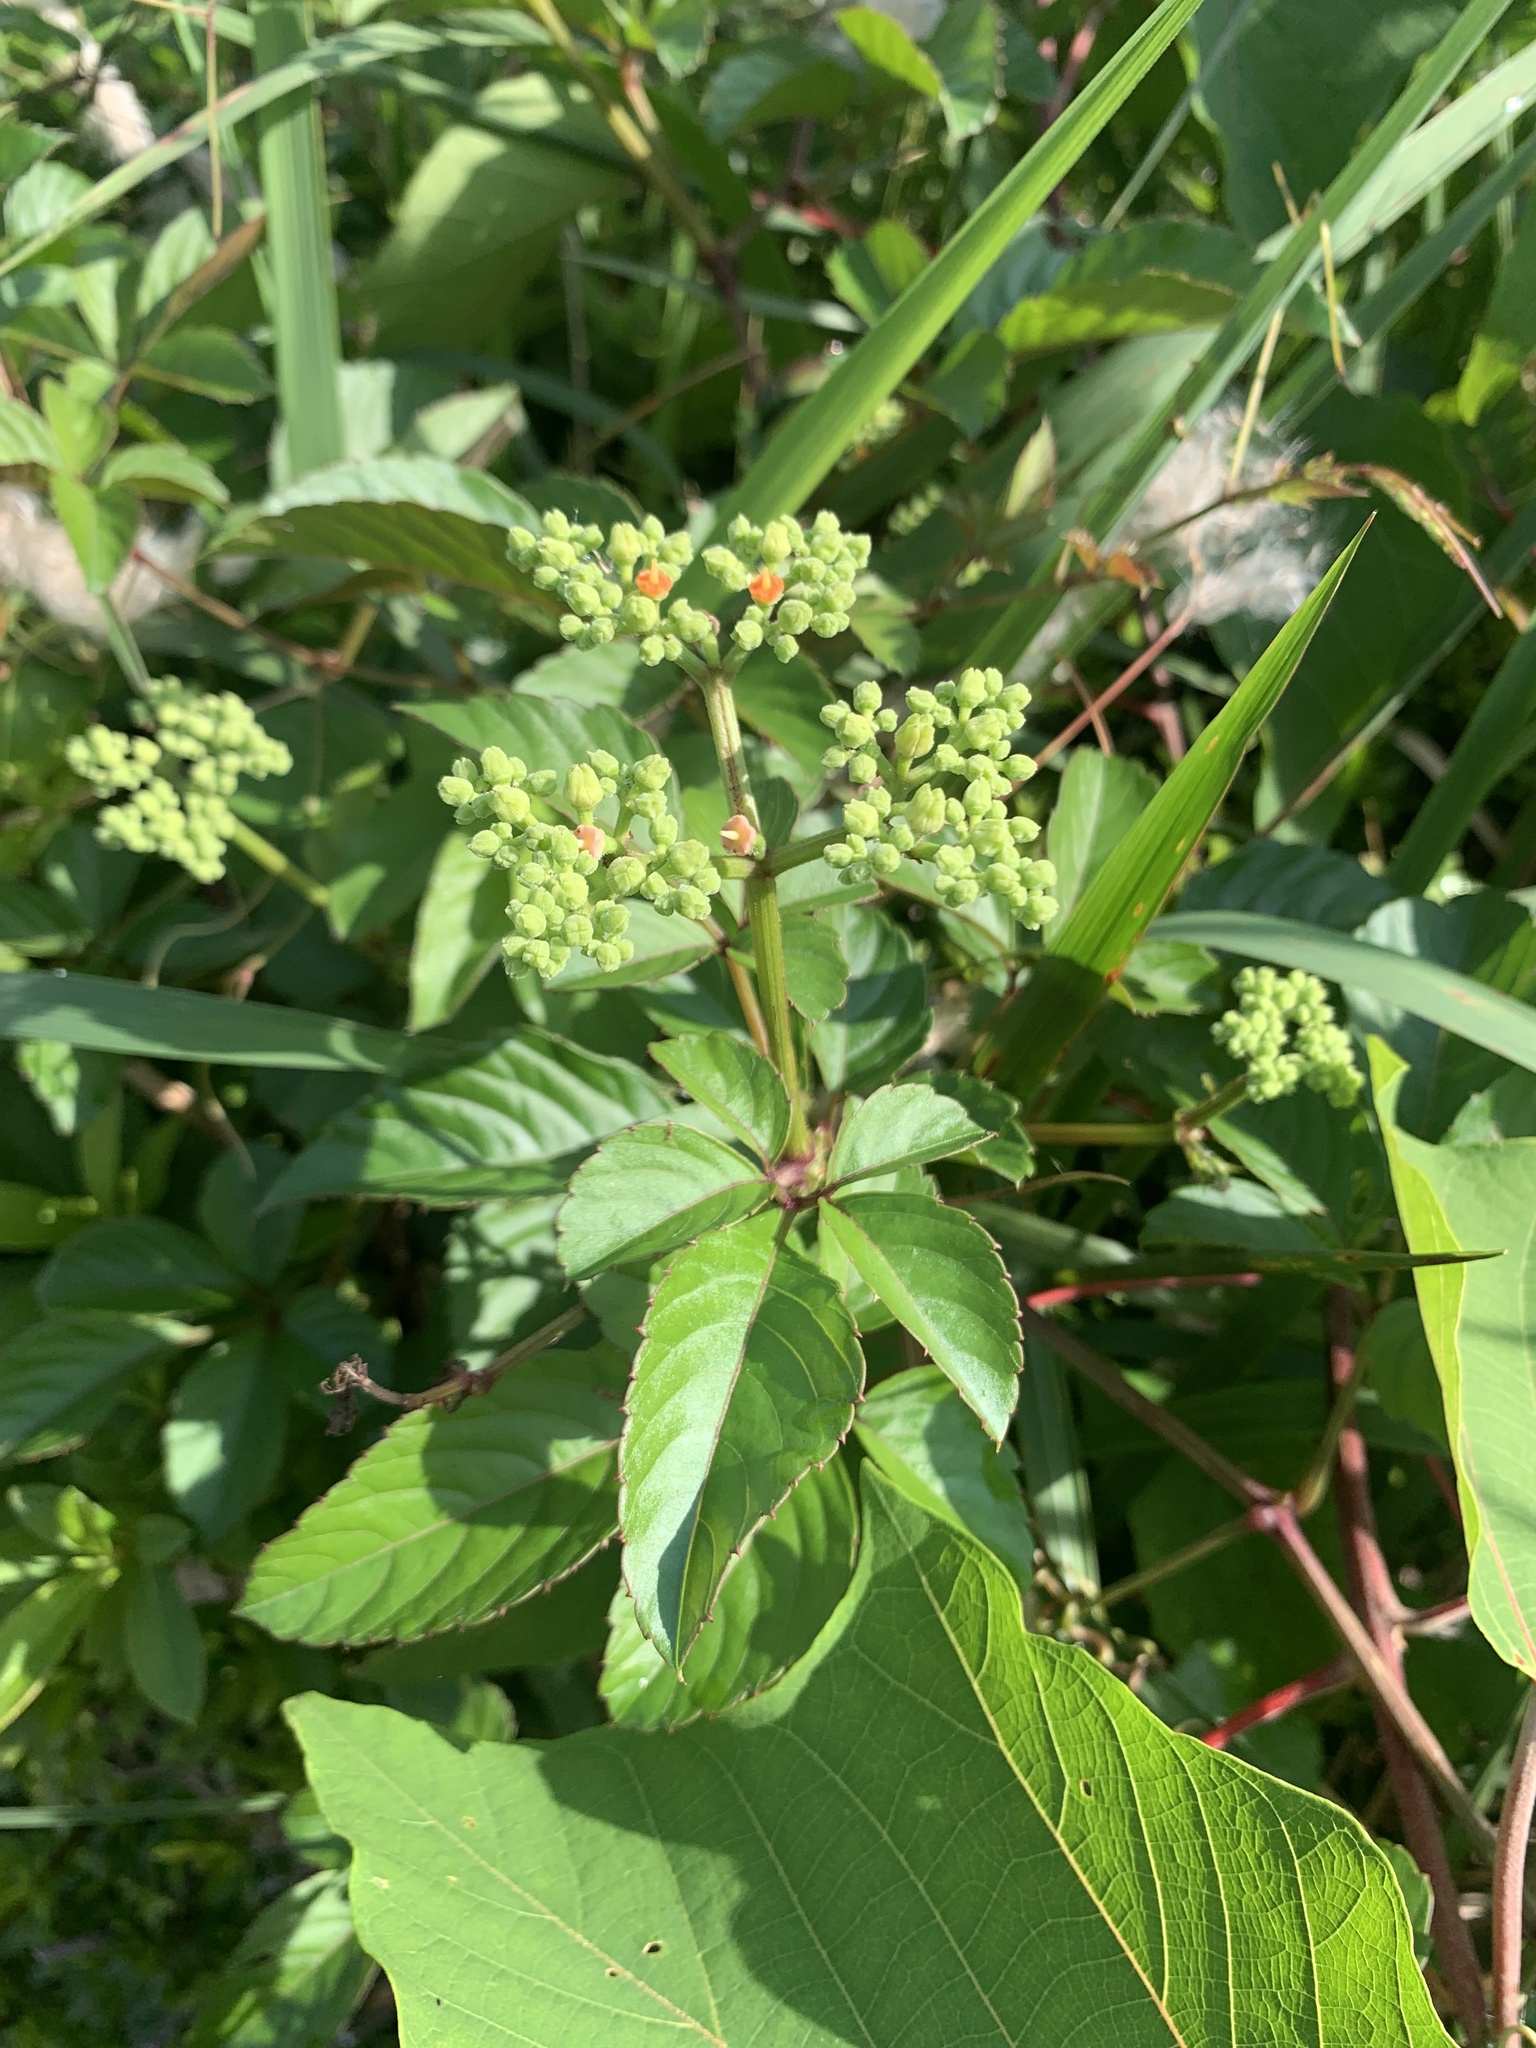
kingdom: Plantae
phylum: Tracheophyta
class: Magnoliopsida
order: Vitales
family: Vitaceae
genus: Causonis
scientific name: Causonis japonica
